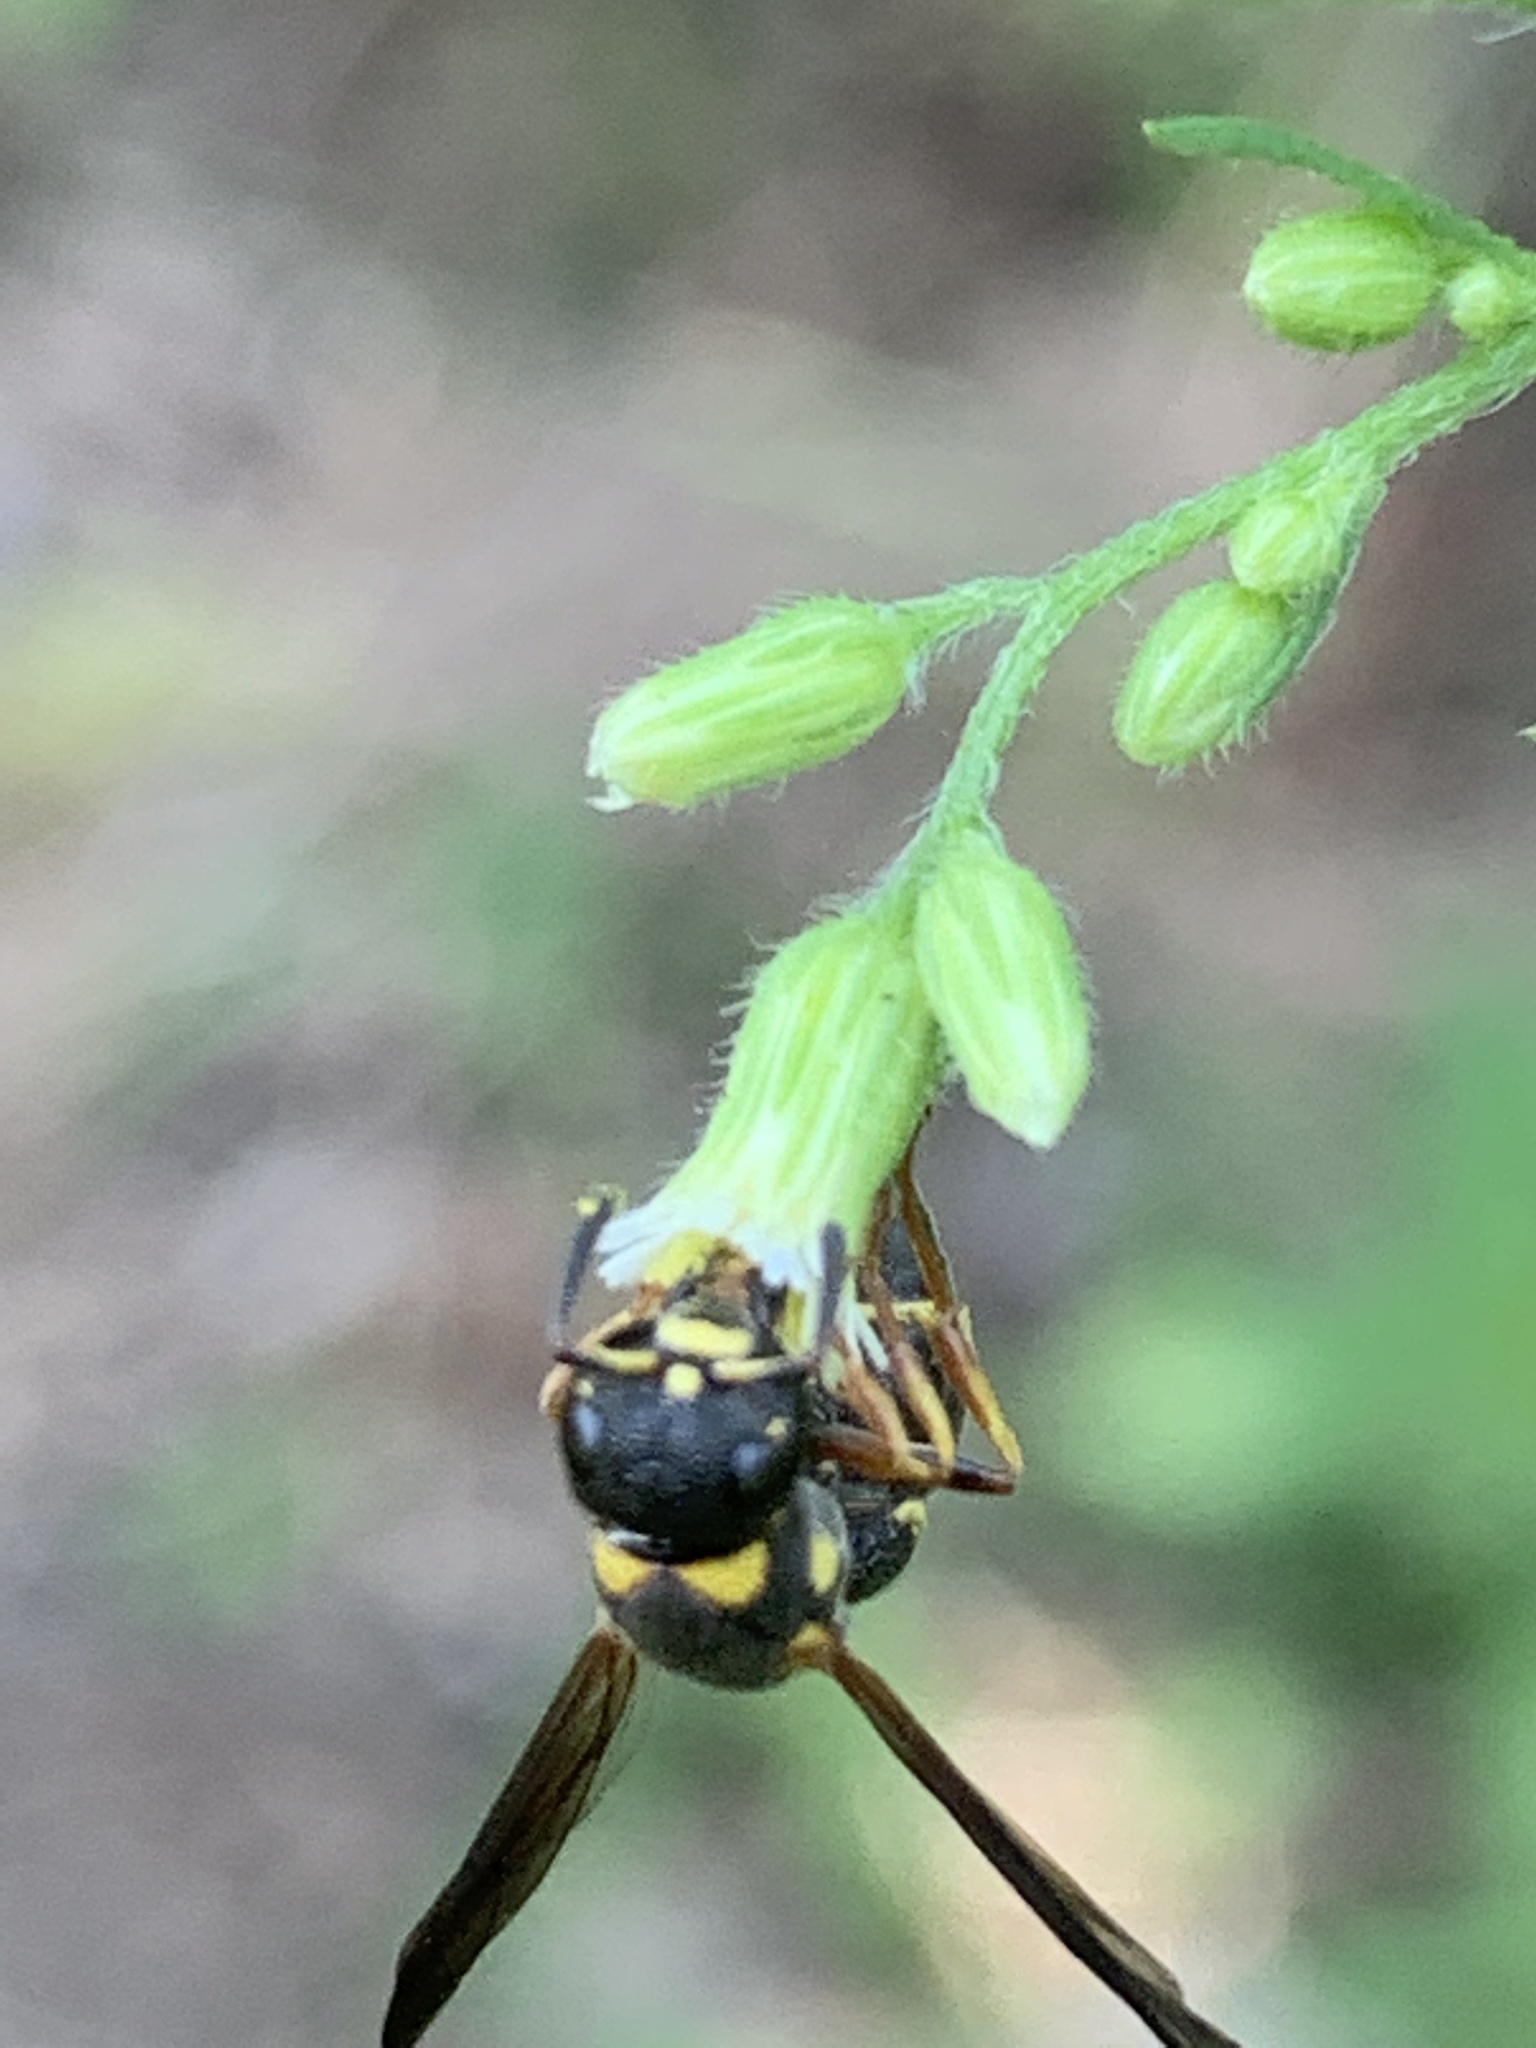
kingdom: Animalia
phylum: Arthropoda
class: Insecta
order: Hymenoptera
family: Eumenidae
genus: Parancistrocerus
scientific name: Parancistrocerus perennis
